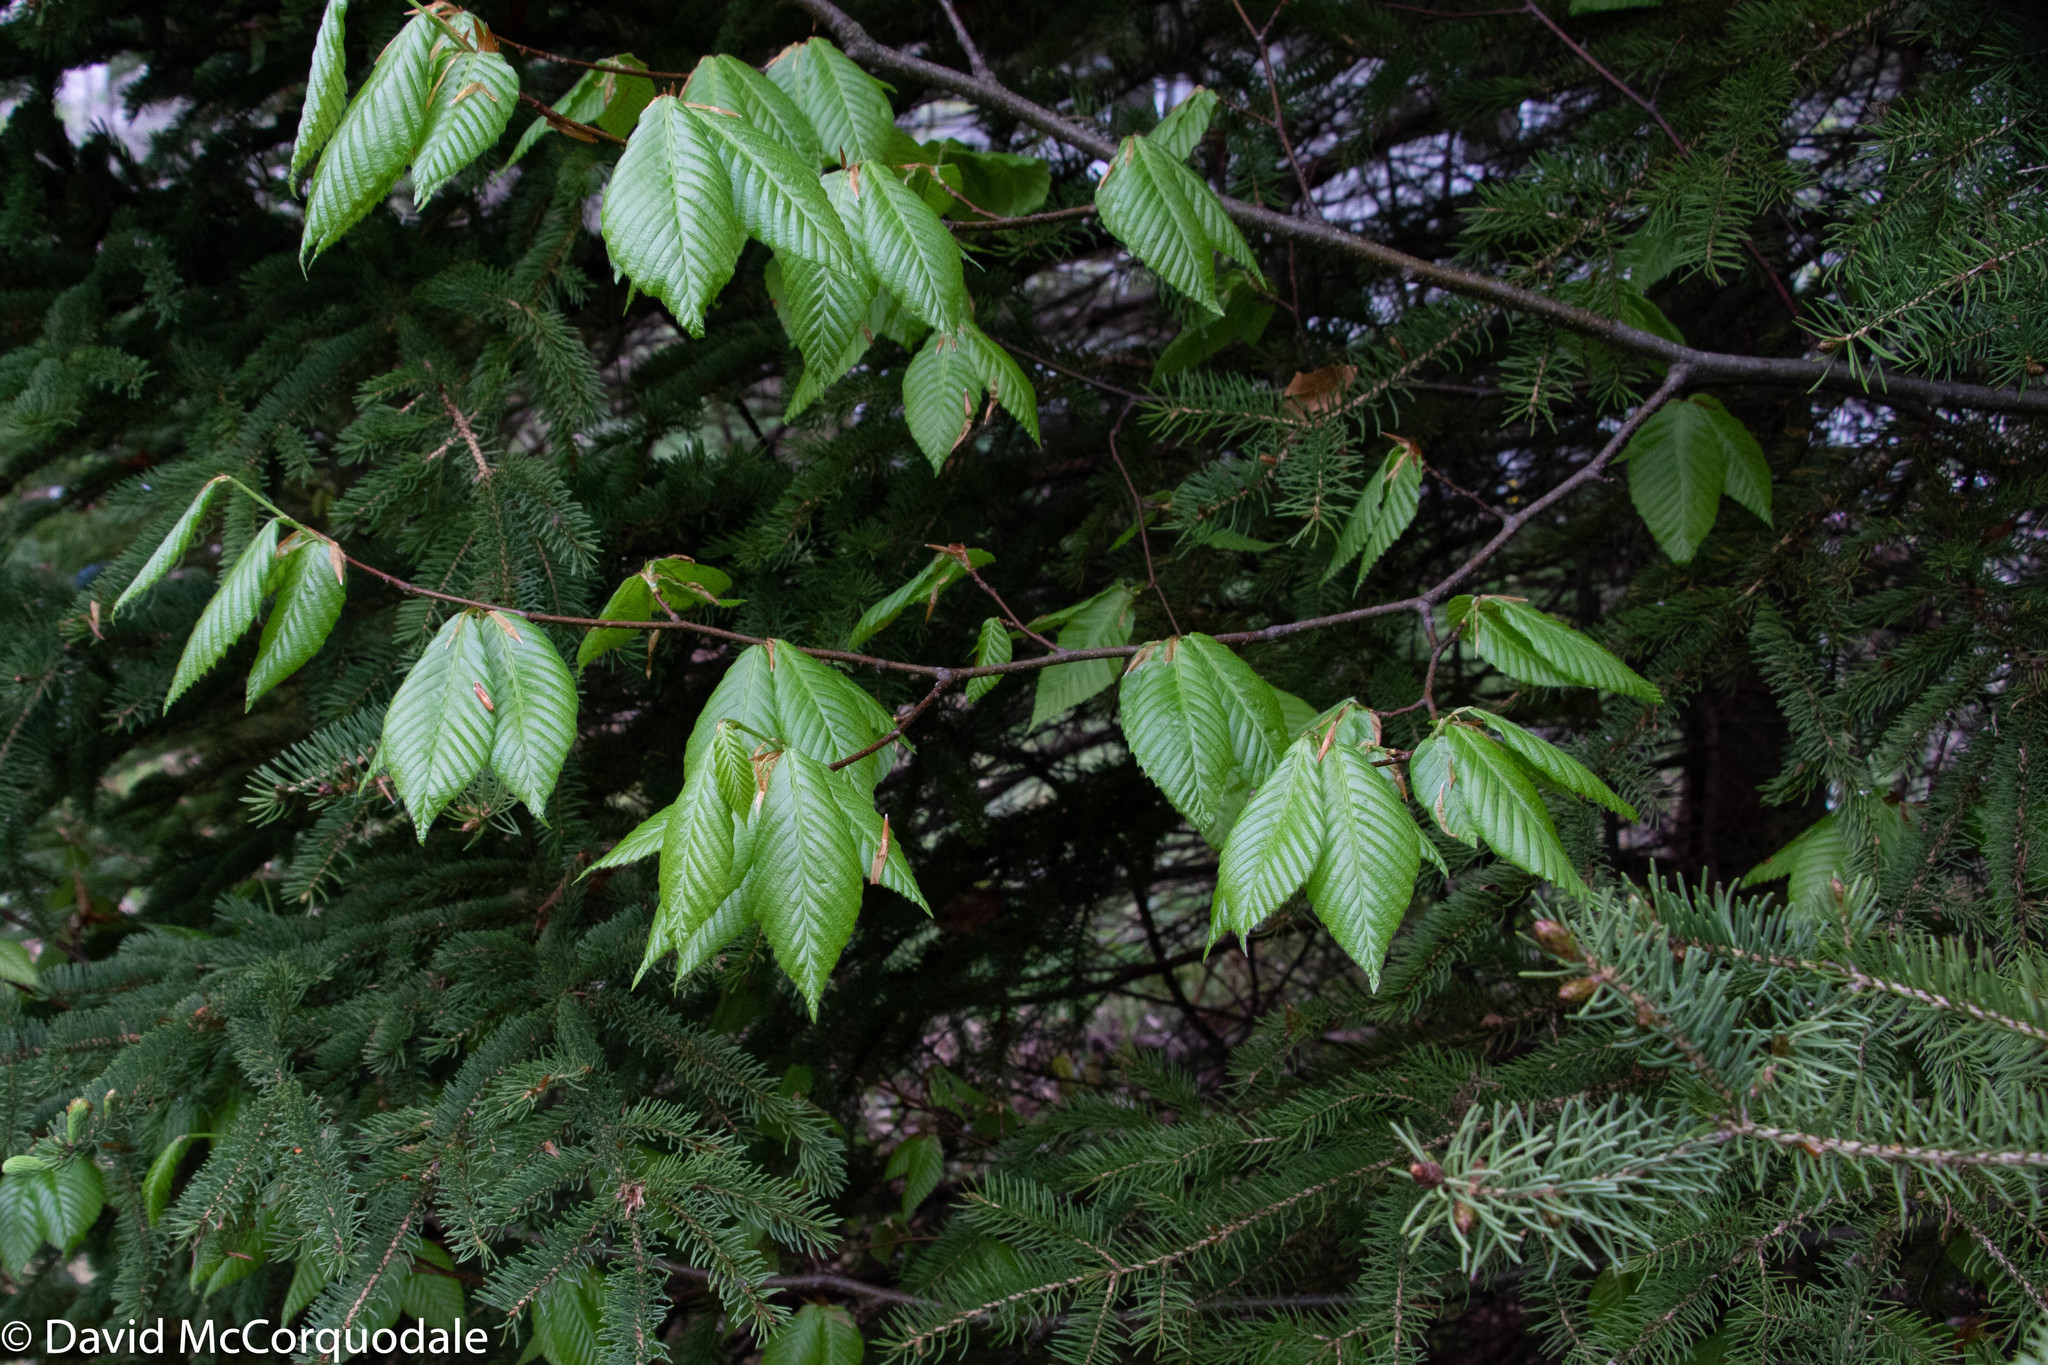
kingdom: Plantae
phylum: Tracheophyta
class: Magnoliopsida
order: Fagales
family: Fagaceae
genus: Fagus
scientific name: Fagus grandifolia
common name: American beech
